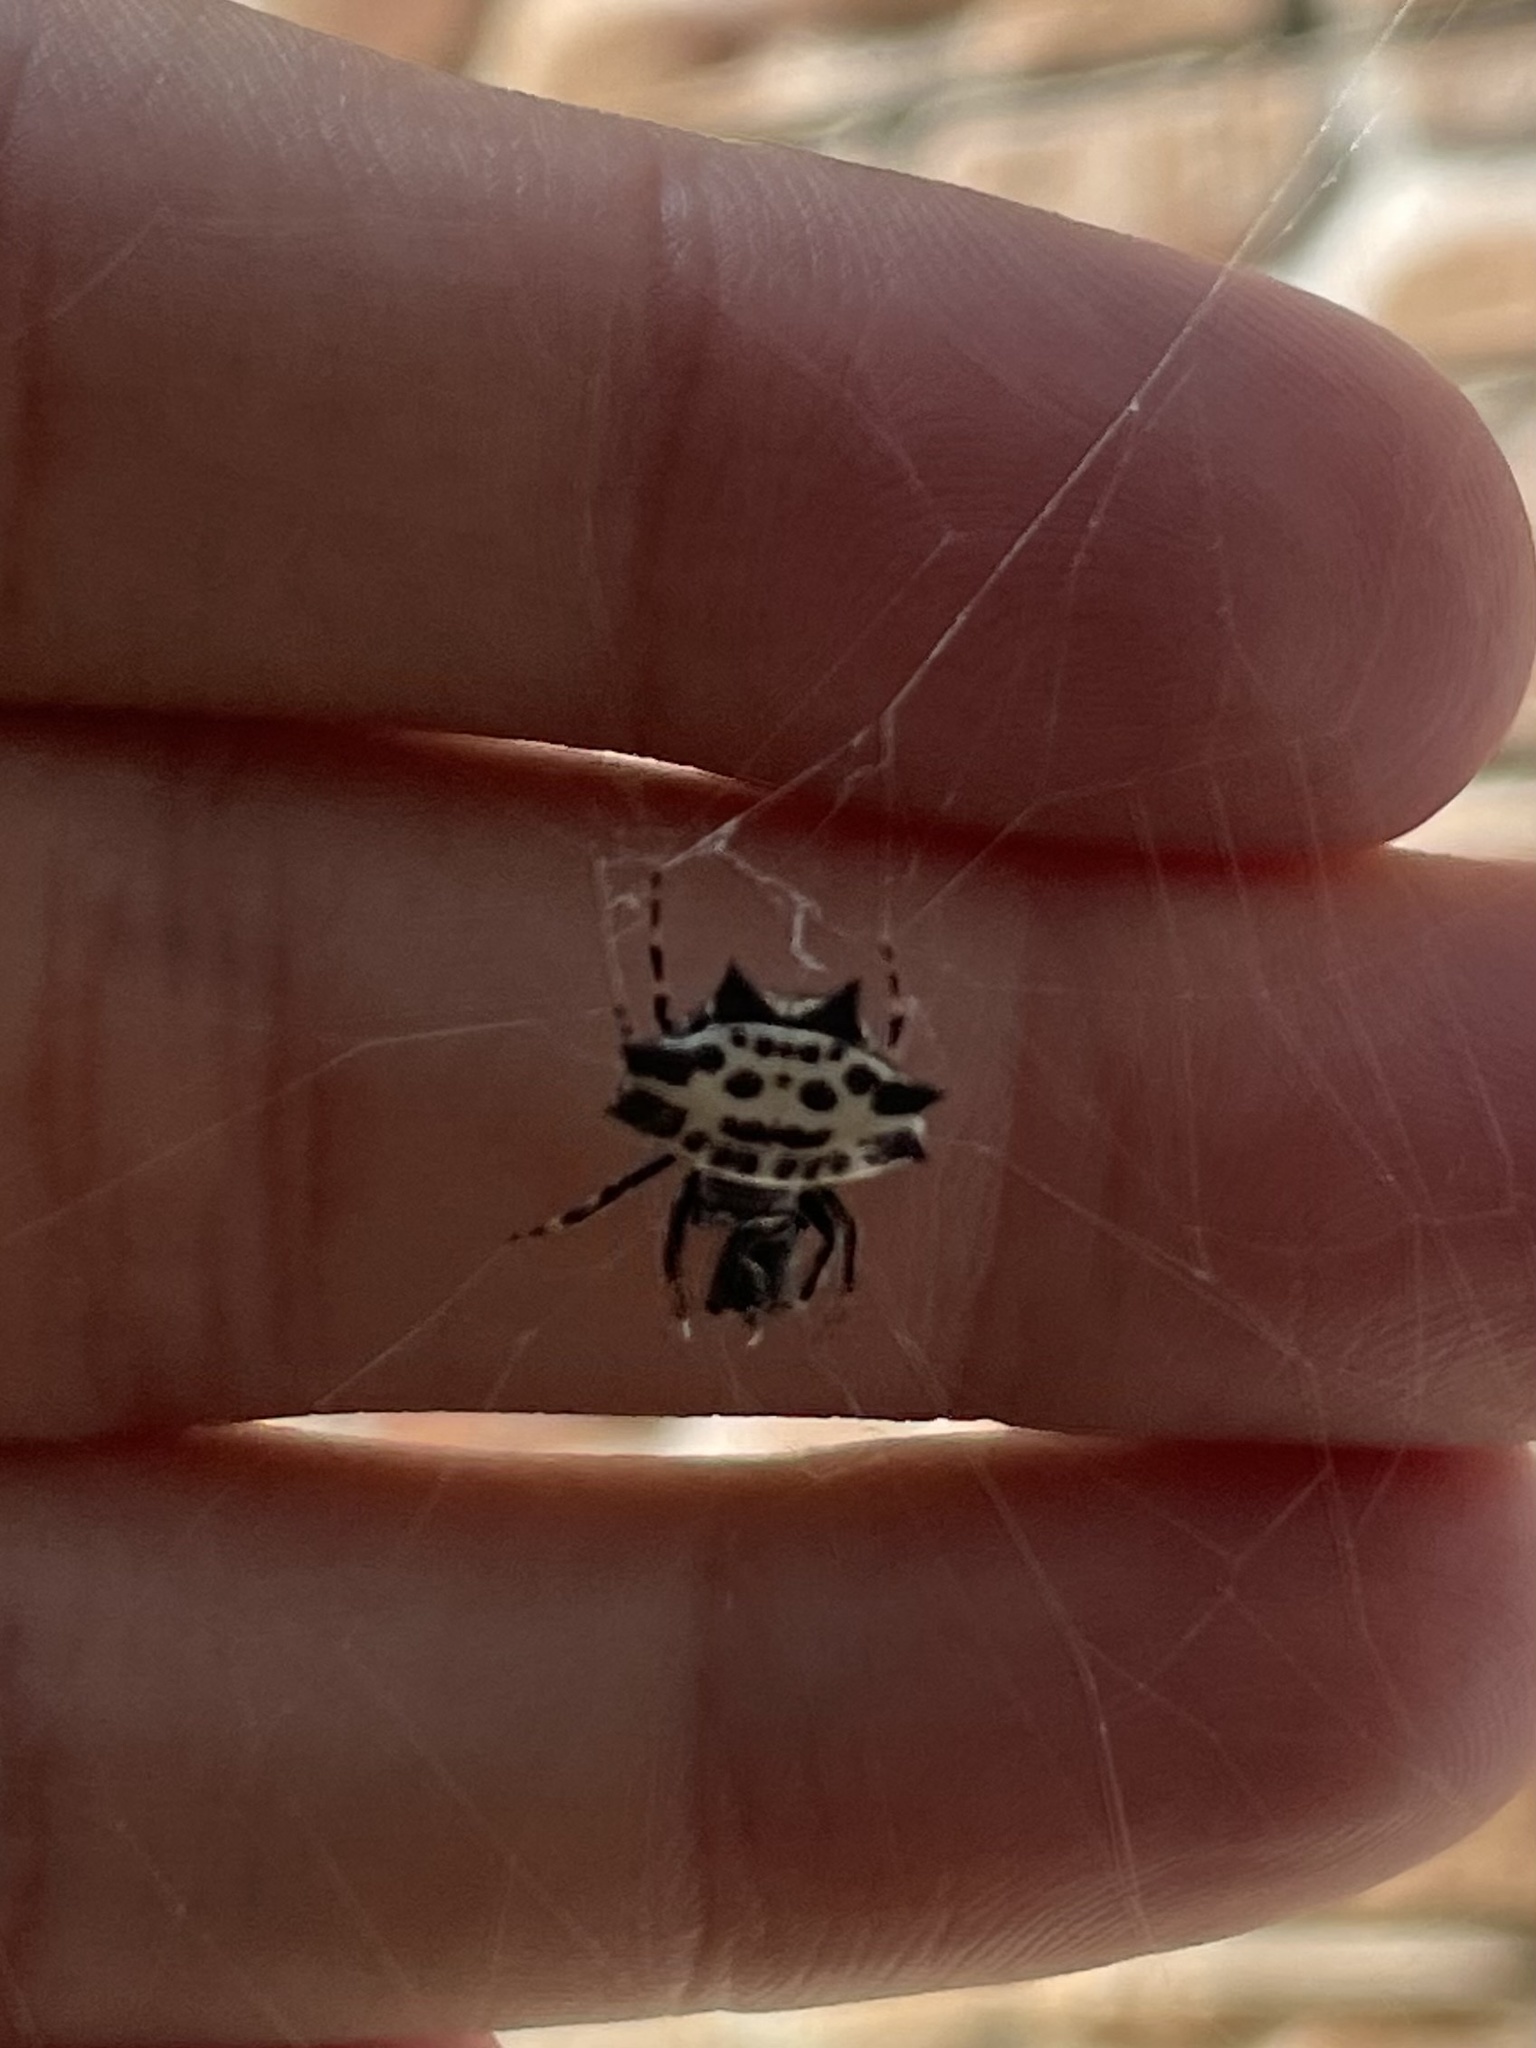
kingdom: Animalia
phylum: Arthropoda
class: Arachnida
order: Araneae
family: Araneidae
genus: Gasteracantha
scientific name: Gasteracantha cancriformis
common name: Orb weavers
